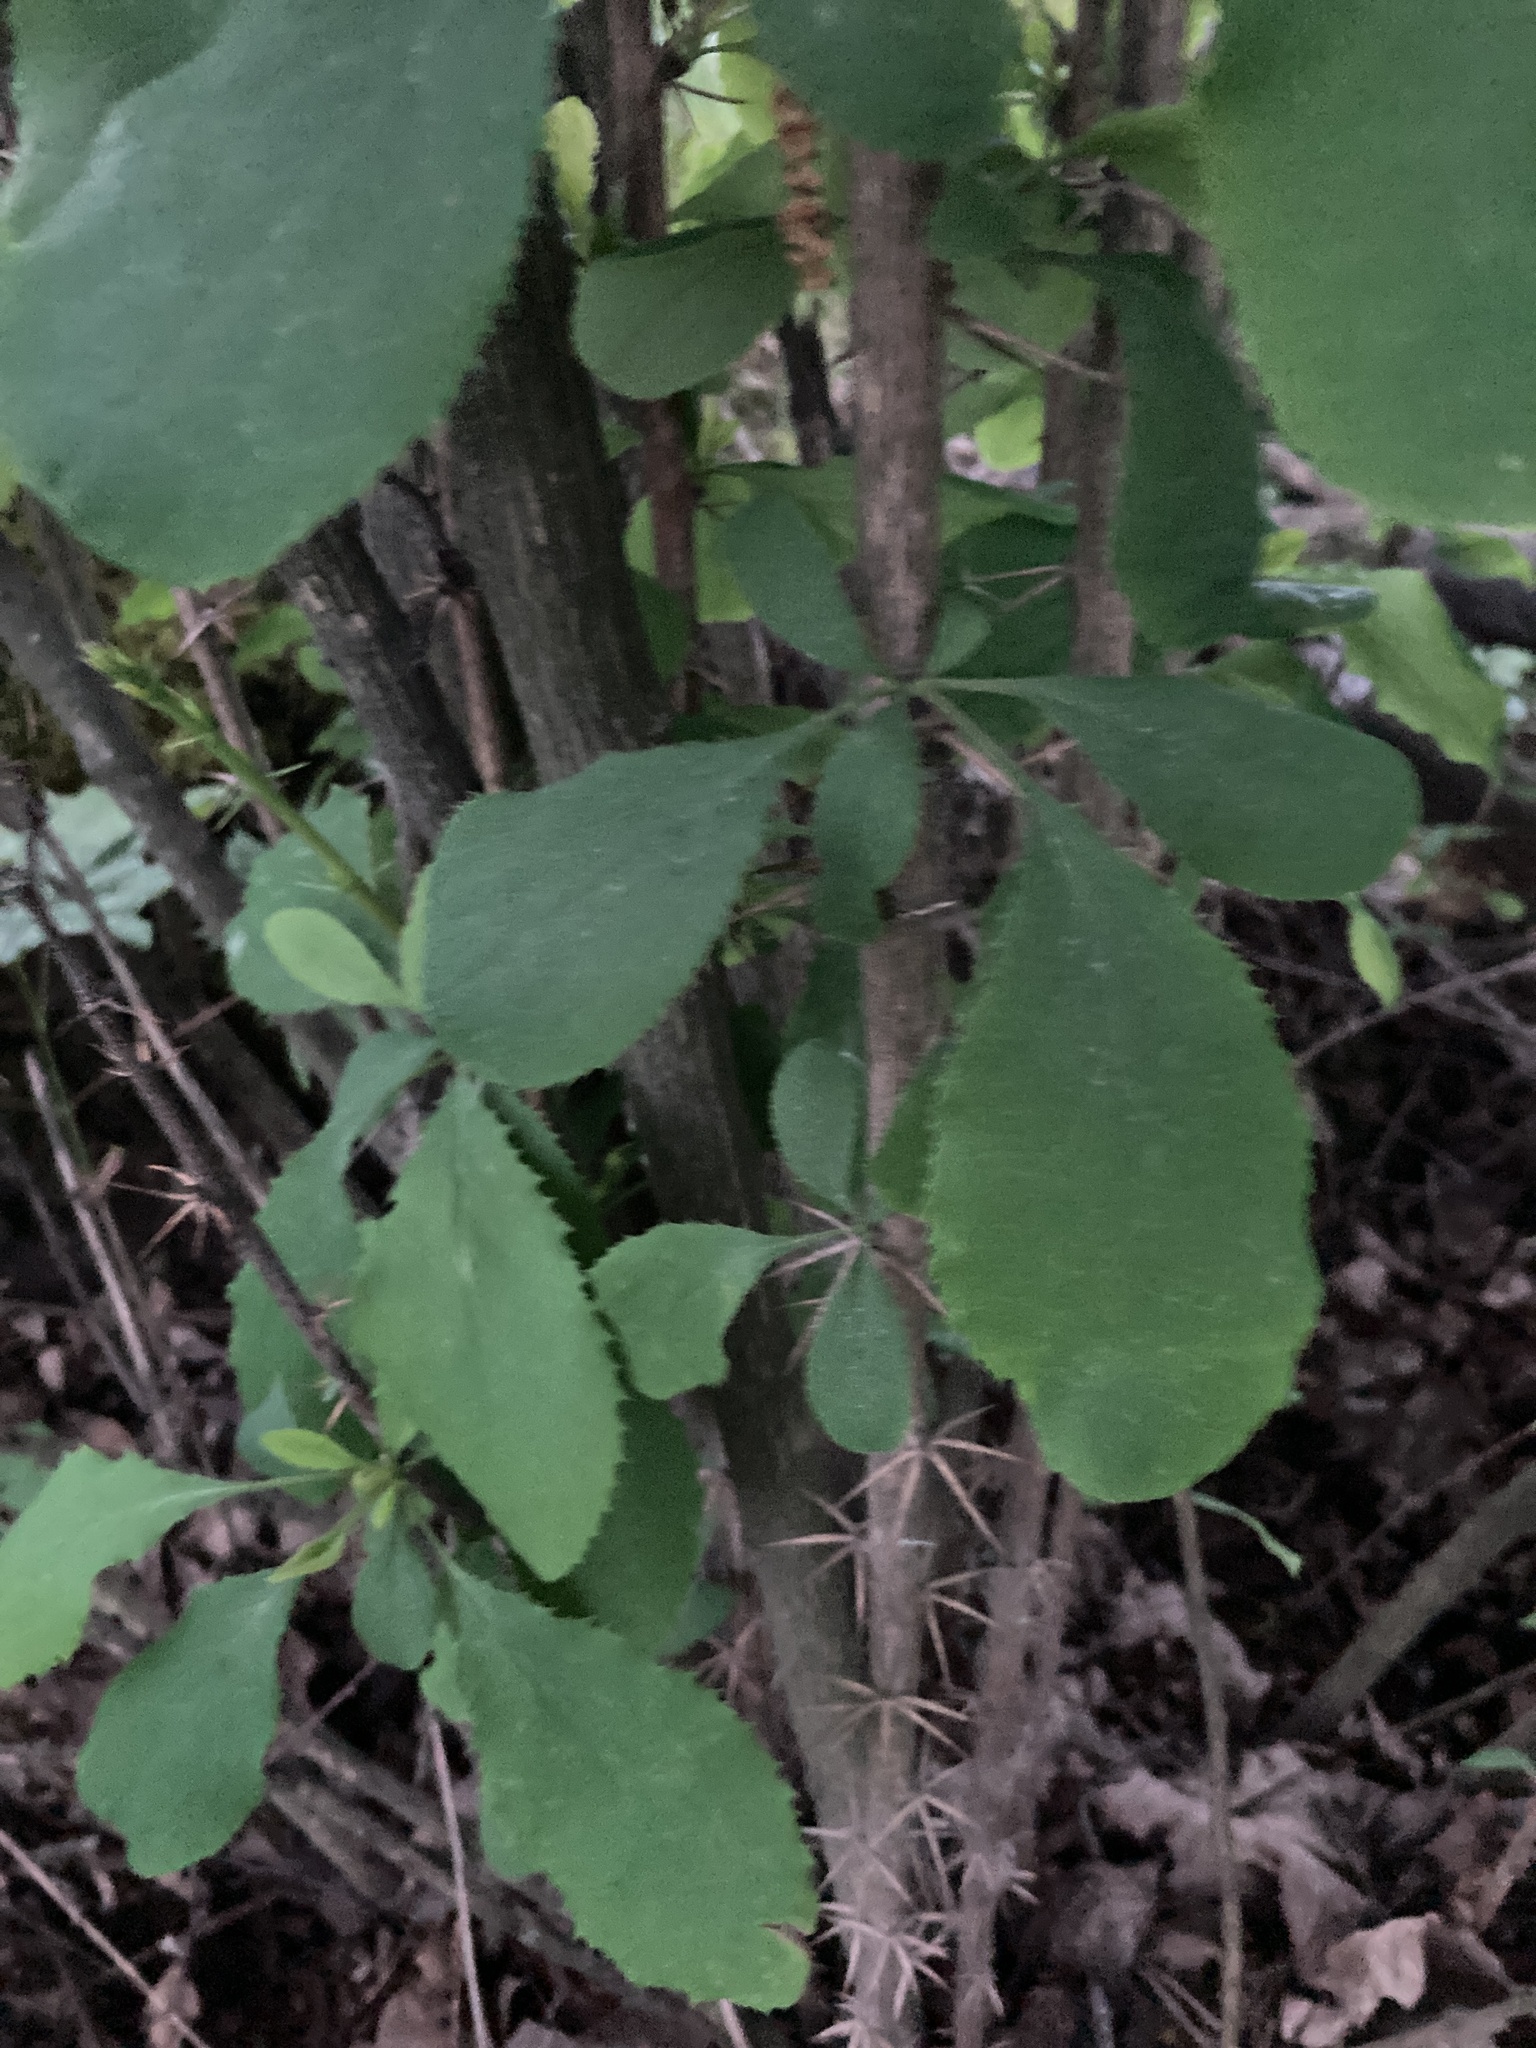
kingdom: Plantae
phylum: Tracheophyta
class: Magnoliopsida
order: Ranunculales
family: Berberidaceae
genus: Berberis
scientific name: Berberis vulgaris
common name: Barberry
